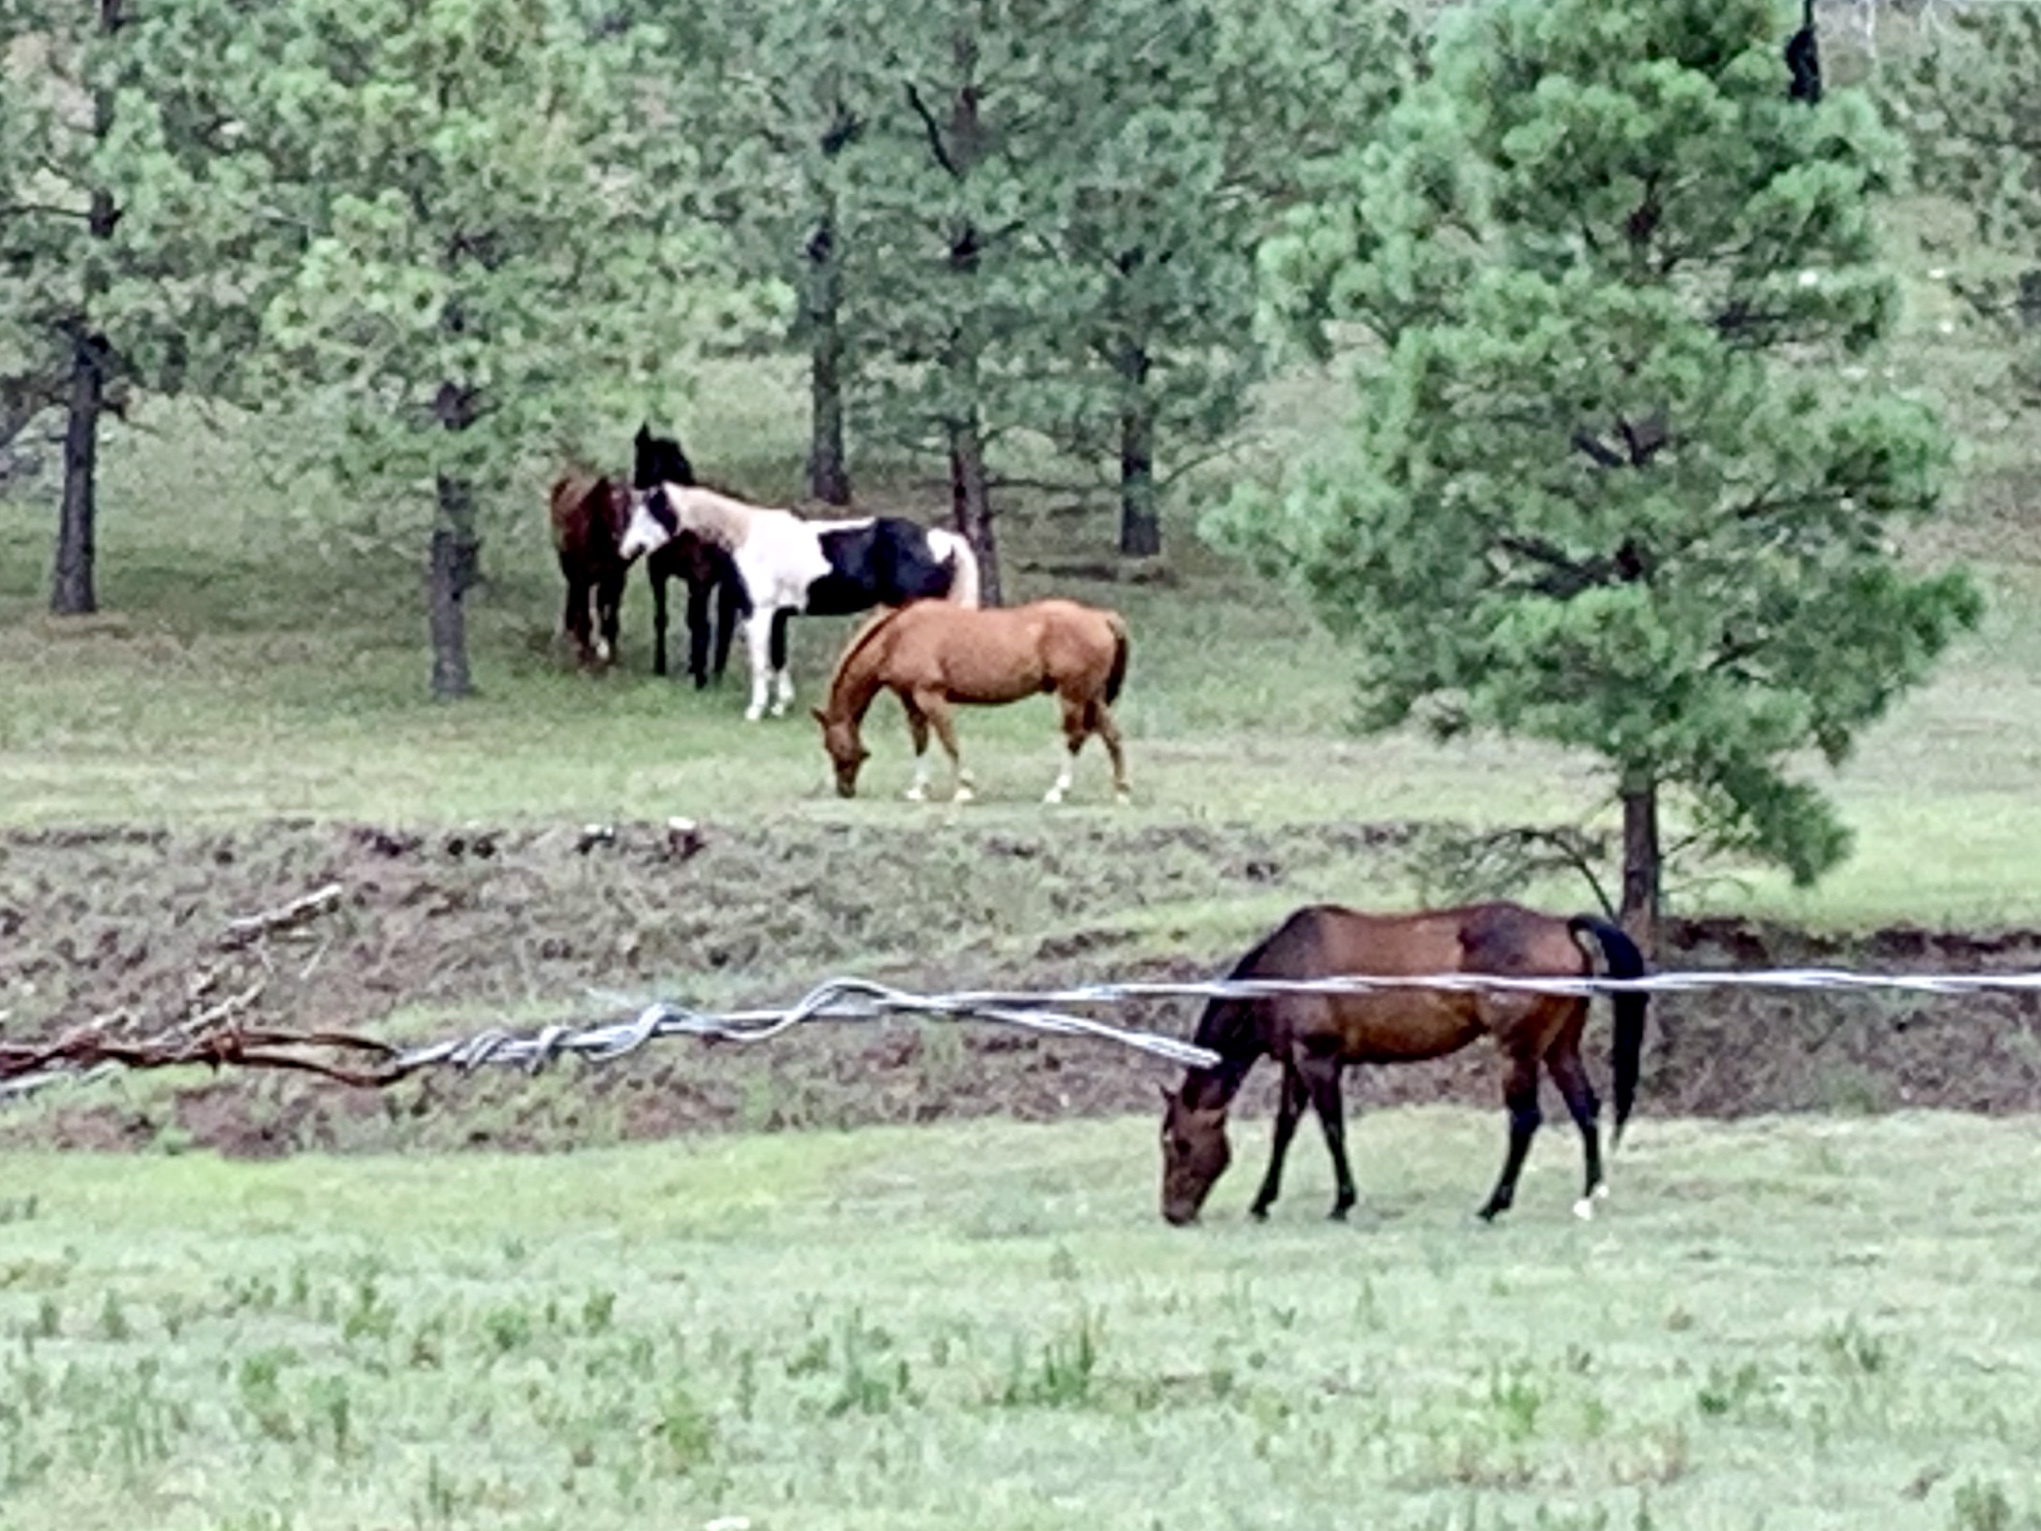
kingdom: Animalia
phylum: Chordata
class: Mammalia
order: Perissodactyla
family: Equidae
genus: Equus
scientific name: Equus caballus
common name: Horse
